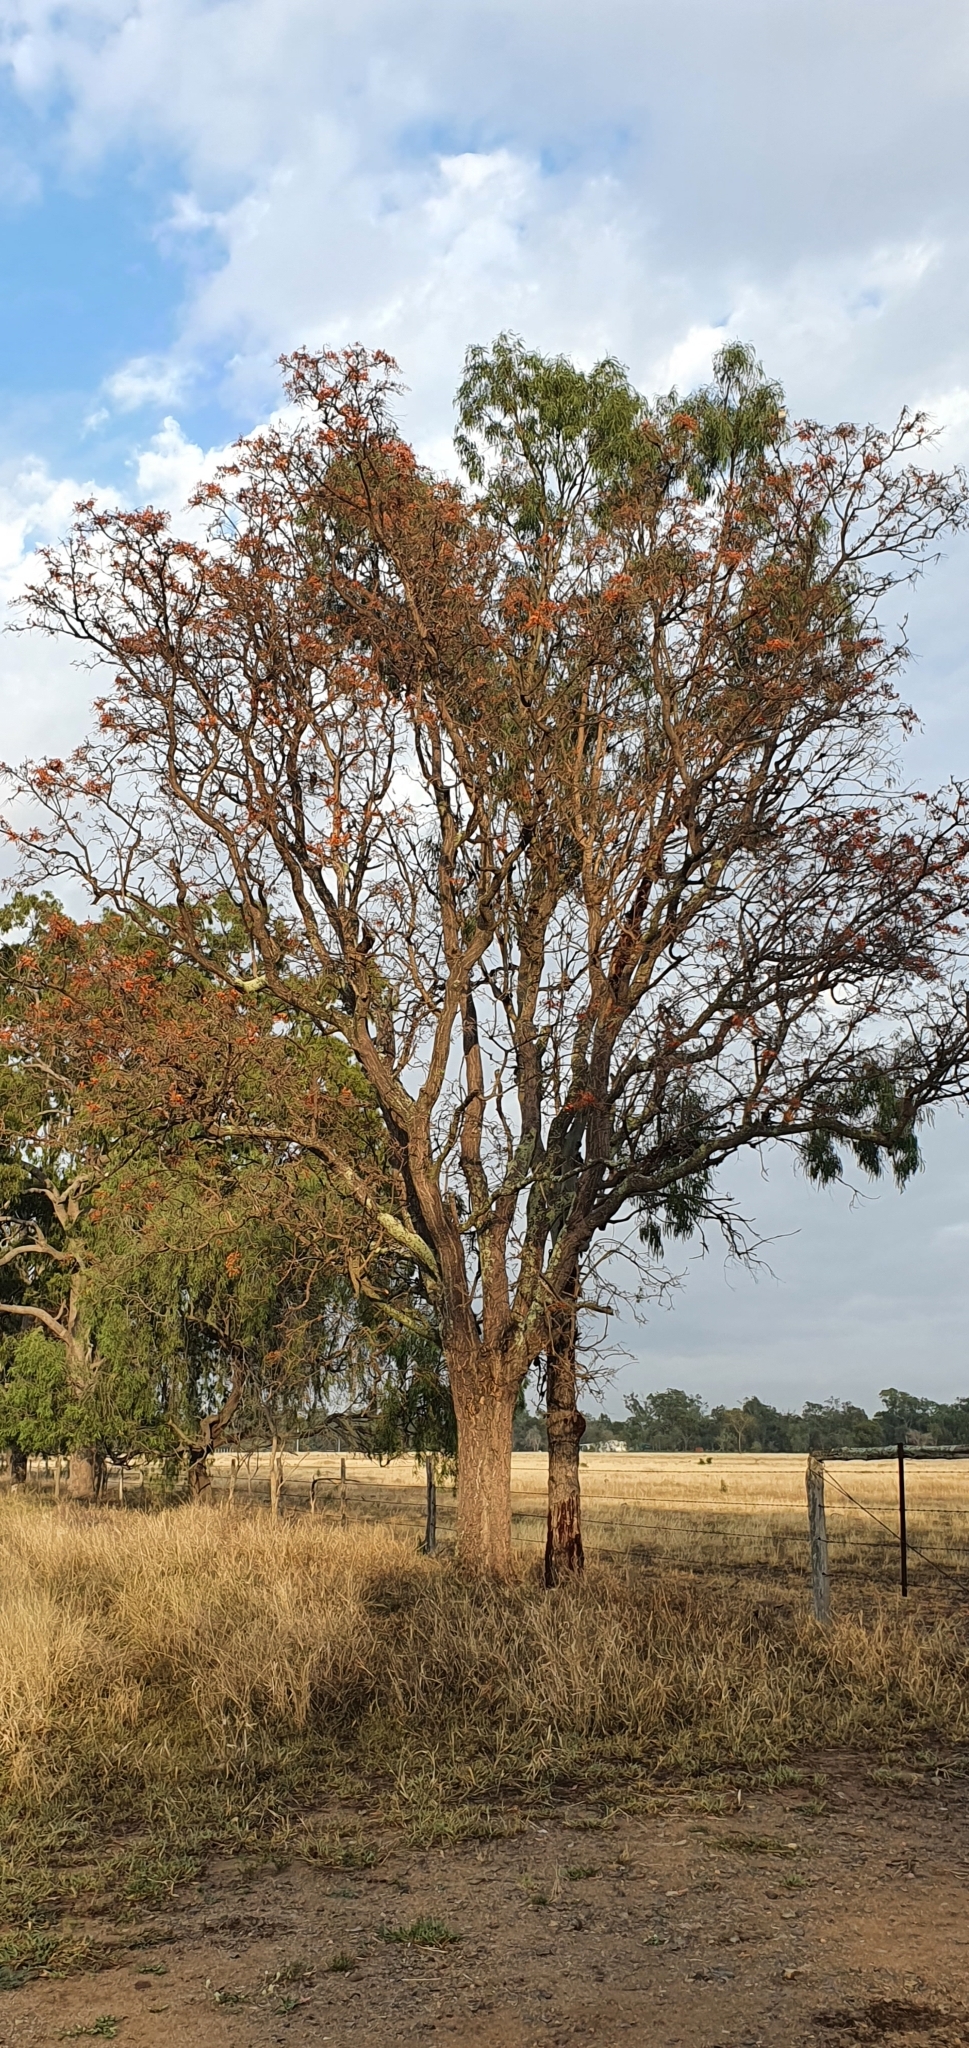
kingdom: Plantae
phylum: Tracheophyta
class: Magnoliopsida
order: Fabales
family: Fabaceae
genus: Erythrina
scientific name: Erythrina vespertilio
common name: Bat-wing coral tree
